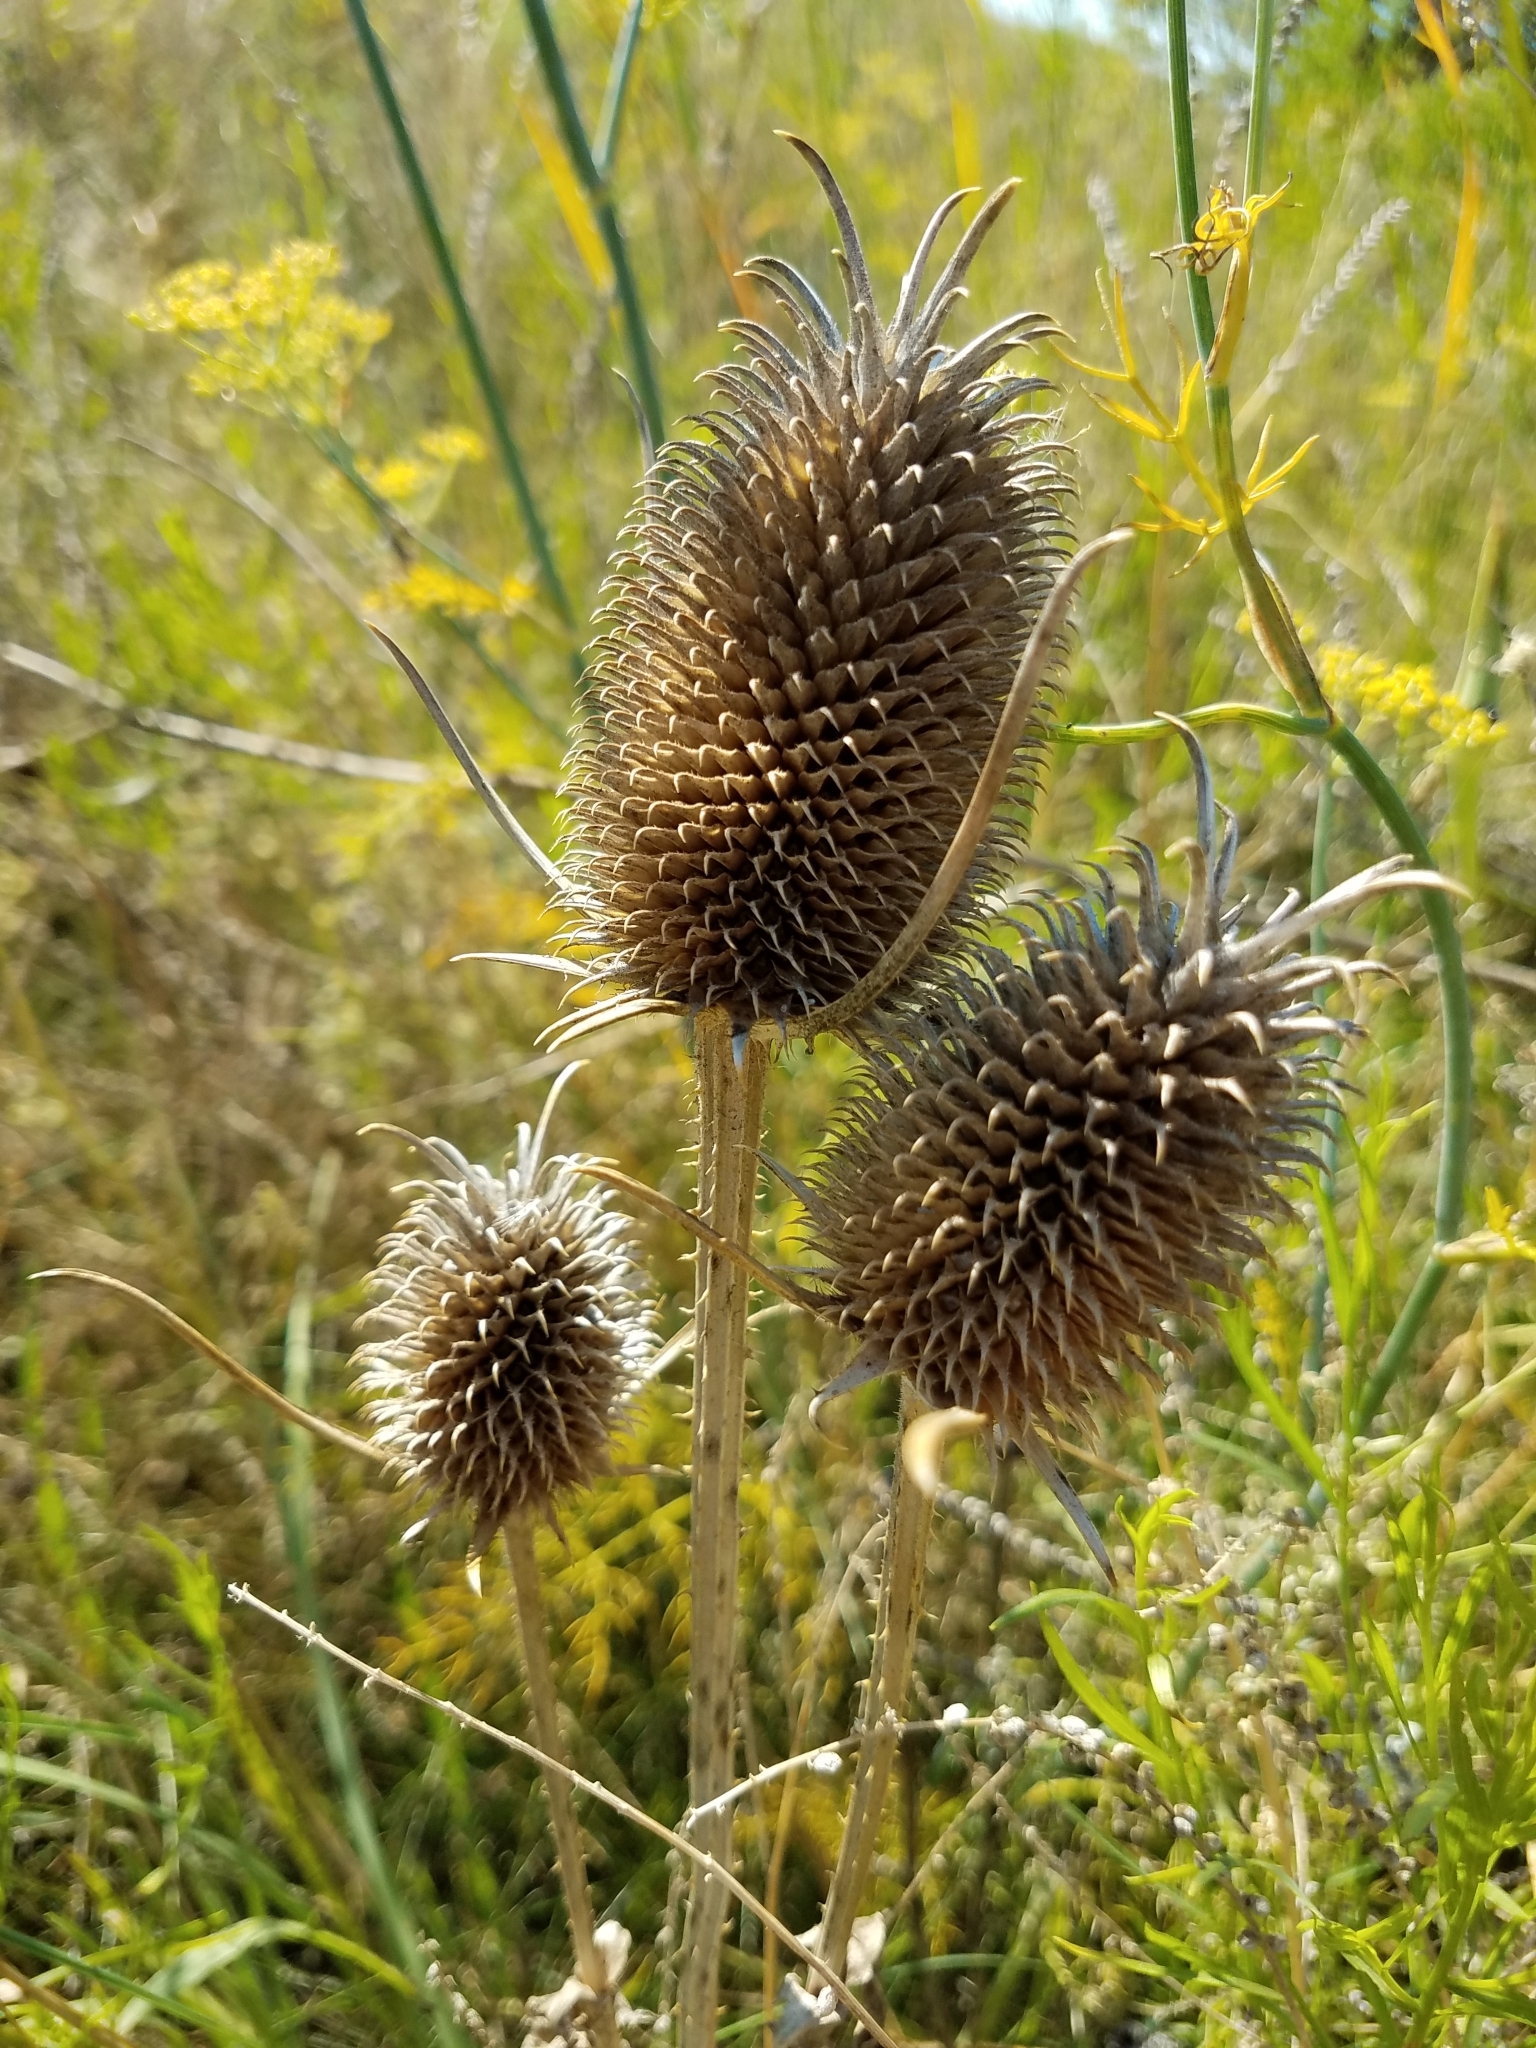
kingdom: Plantae
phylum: Tracheophyta
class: Magnoliopsida
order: Dipsacales
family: Caprifoliaceae
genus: Dipsacus
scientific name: Dipsacus sativus
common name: Fuller's teasel
